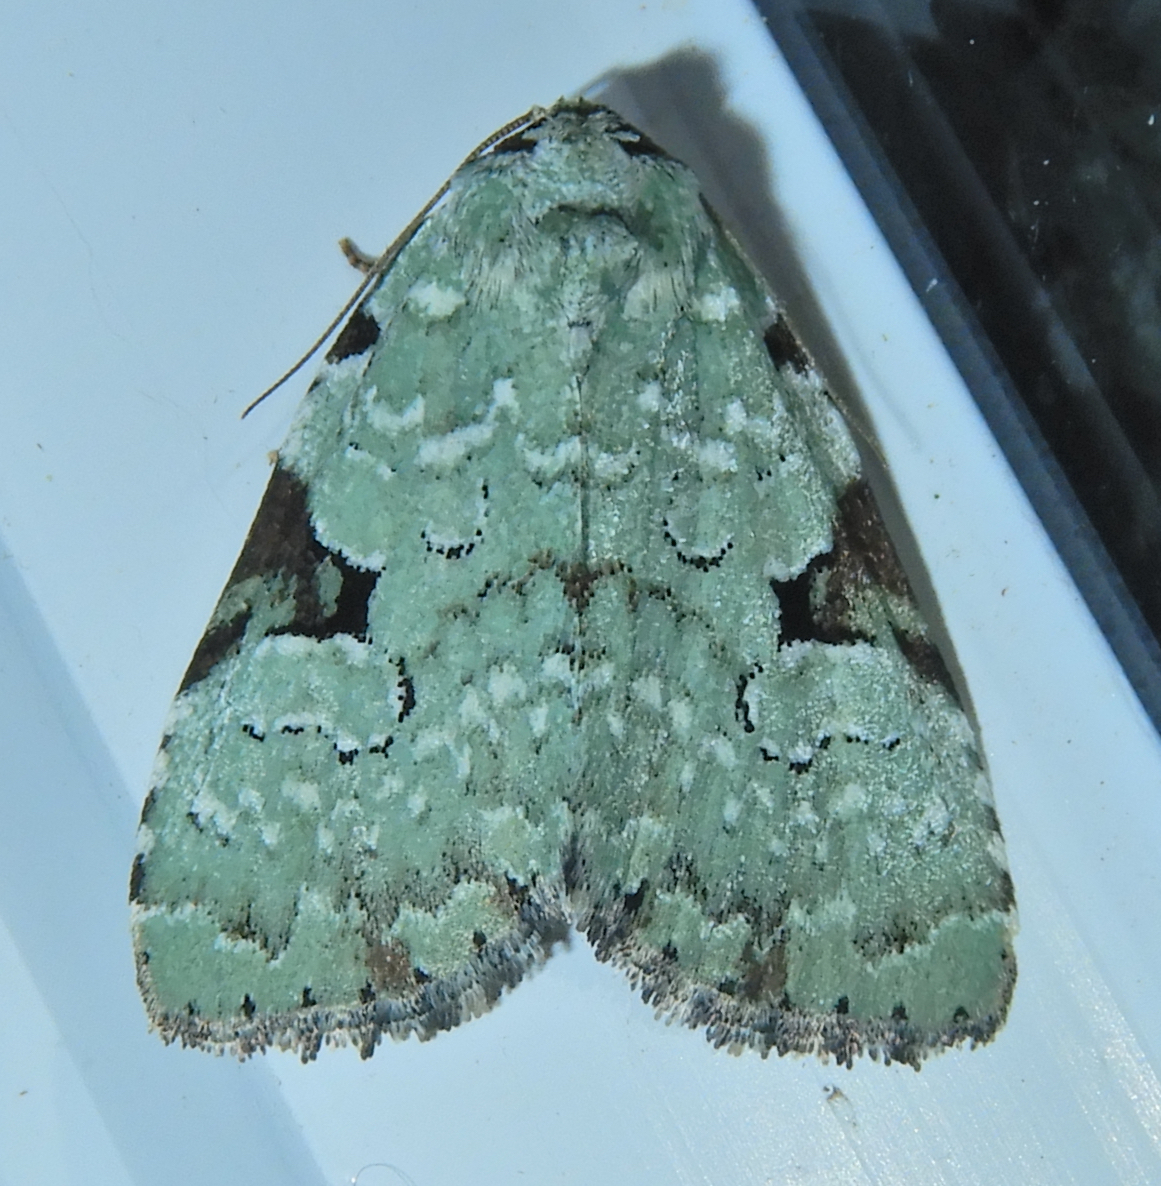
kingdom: Animalia
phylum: Arthropoda
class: Insecta
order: Lepidoptera
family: Noctuidae
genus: Leuconycta
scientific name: Leuconycta diphteroides
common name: Green leuconycta moth
